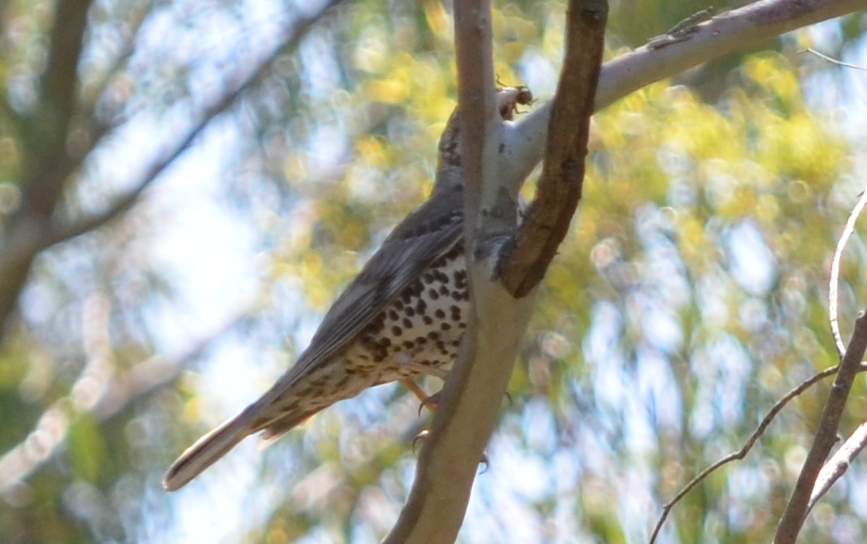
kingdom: Animalia
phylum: Chordata
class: Aves
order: Passeriformes
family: Turdidae
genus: Turdus
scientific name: Turdus viscivorus
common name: Mistle thrush
